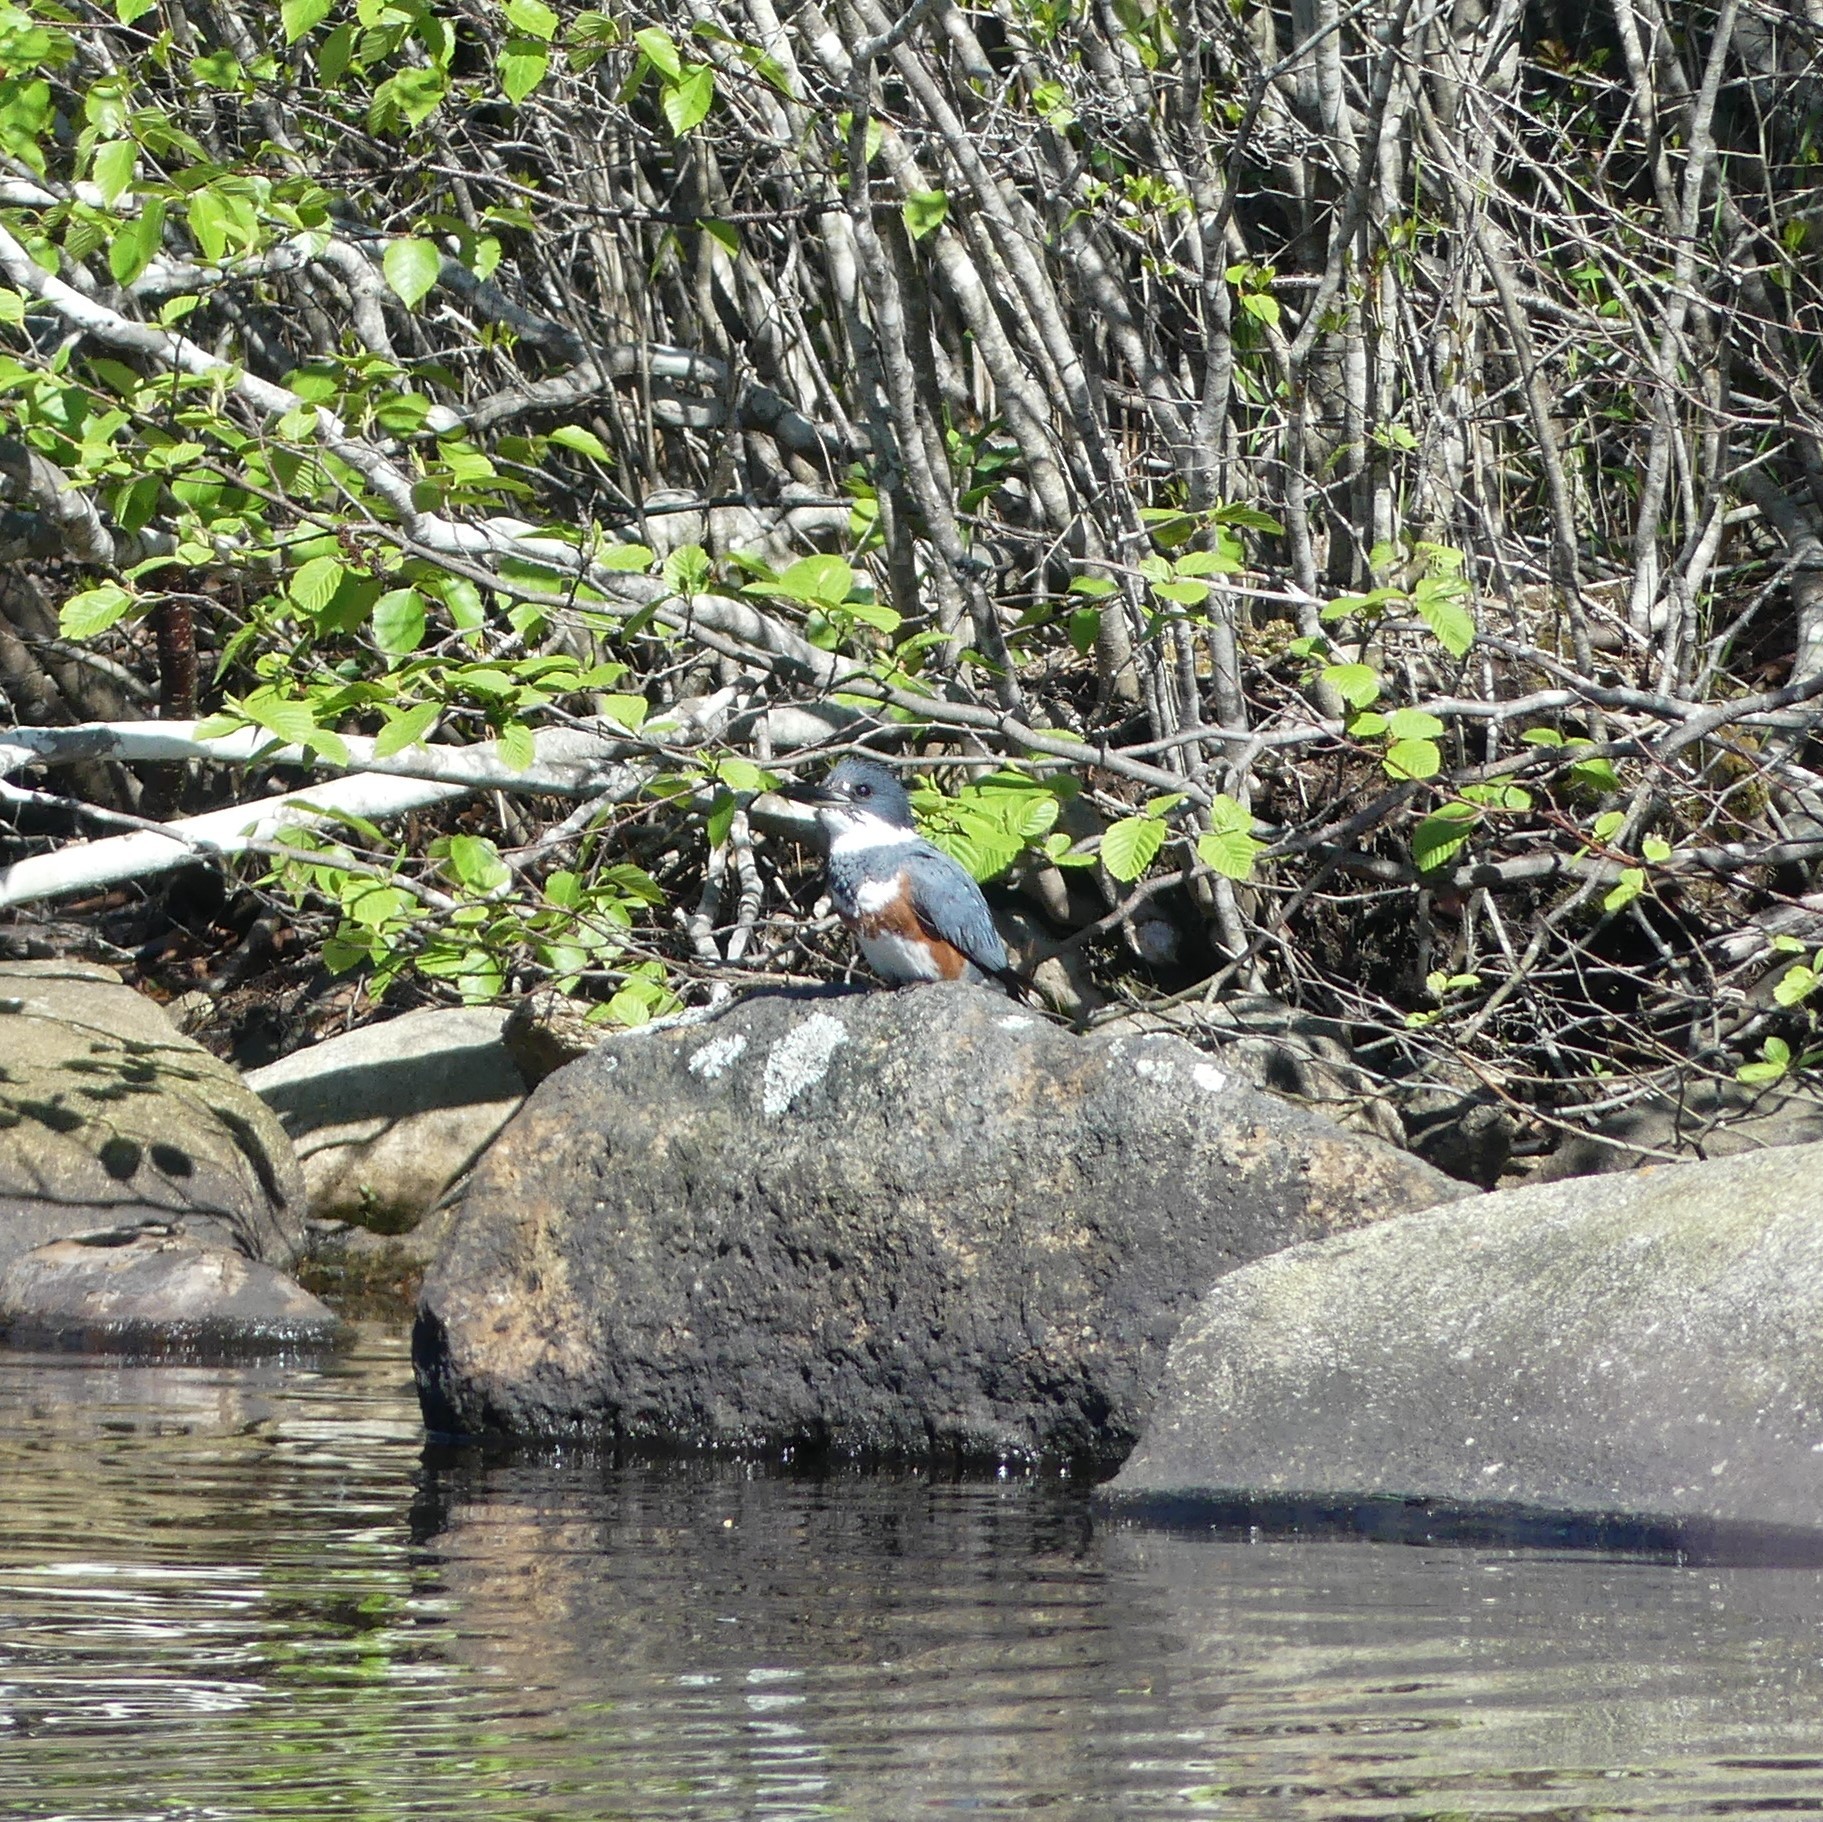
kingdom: Animalia
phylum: Chordata
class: Aves
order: Coraciiformes
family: Alcedinidae
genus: Megaceryle
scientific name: Megaceryle alcyon
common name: Belted kingfisher
